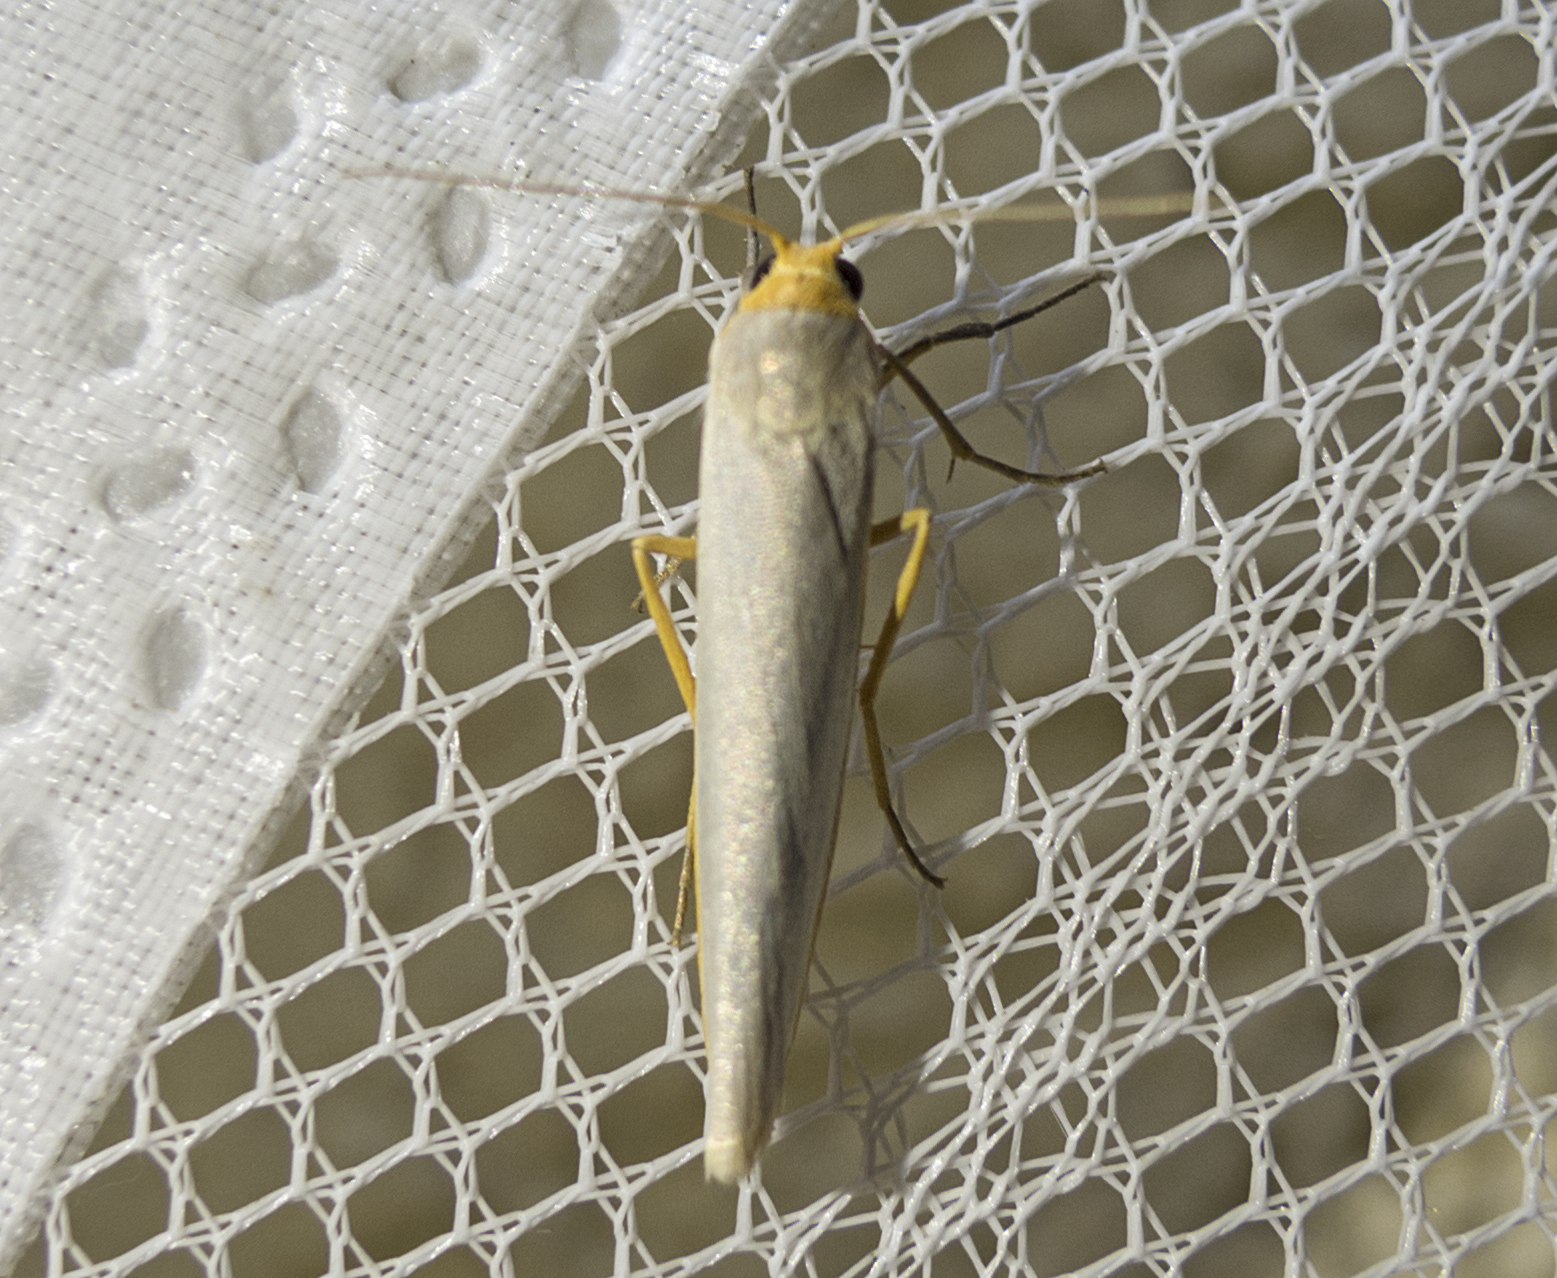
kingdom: Animalia
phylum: Arthropoda
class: Insecta
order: Lepidoptera
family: Erebidae
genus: Eilema
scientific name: Eilema caniola
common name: Hoary footman
